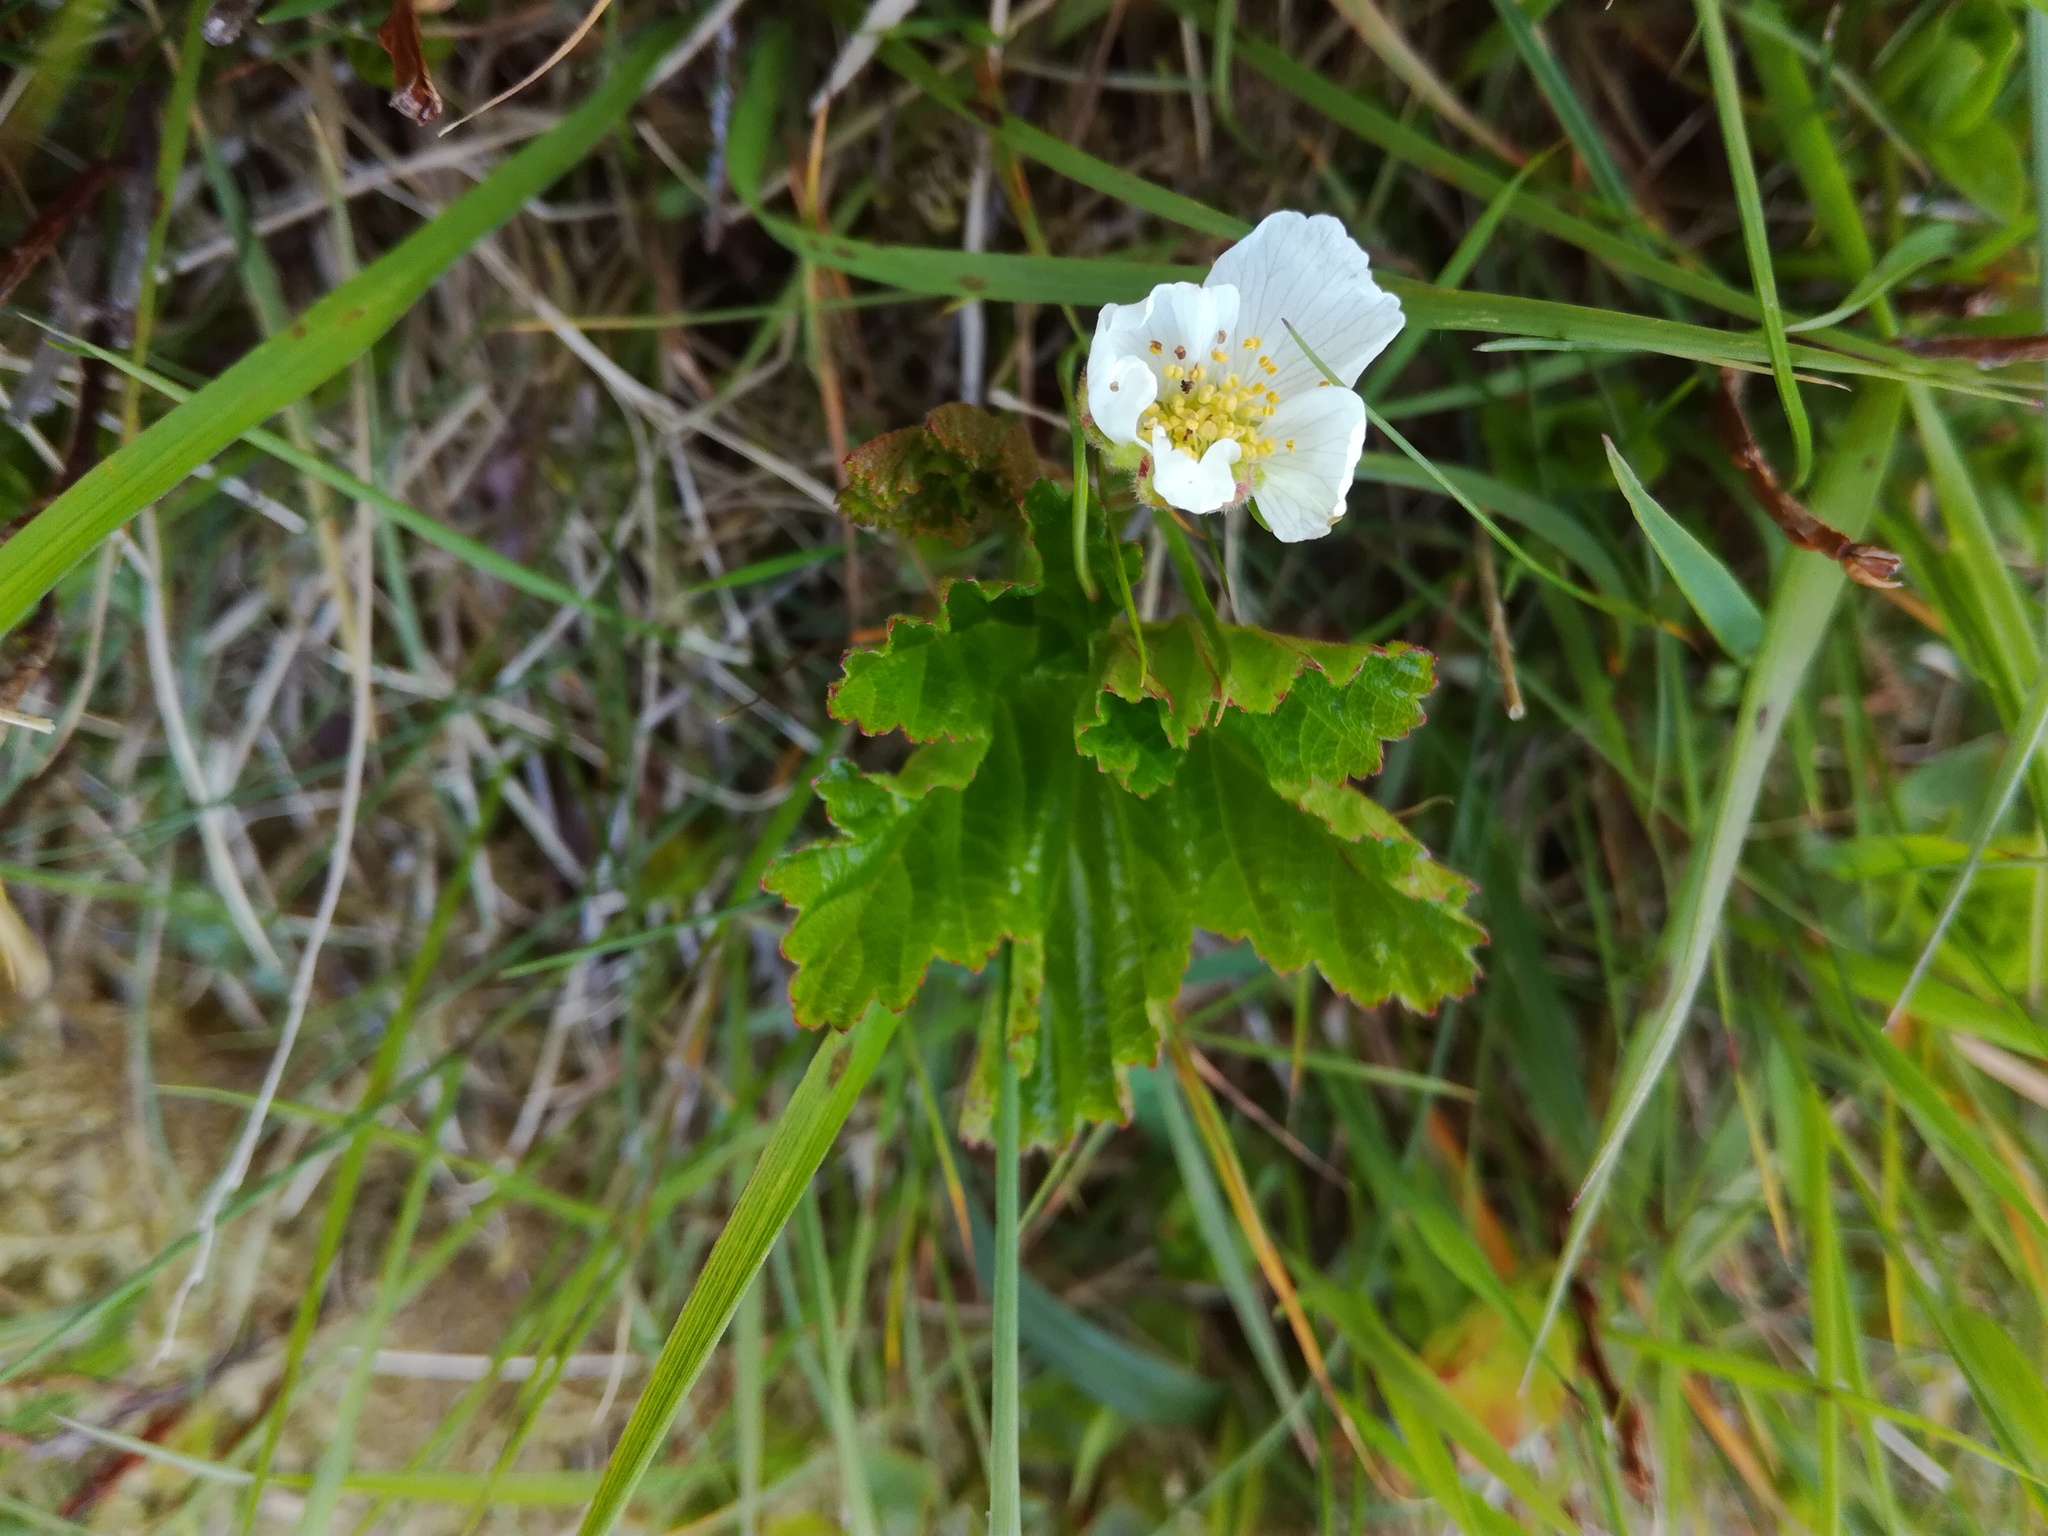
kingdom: Plantae
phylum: Tracheophyta
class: Magnoliopsida
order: Rosales
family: Rosaceae
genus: Rubus
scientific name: Rubus chamaemorus
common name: Cloudberry
